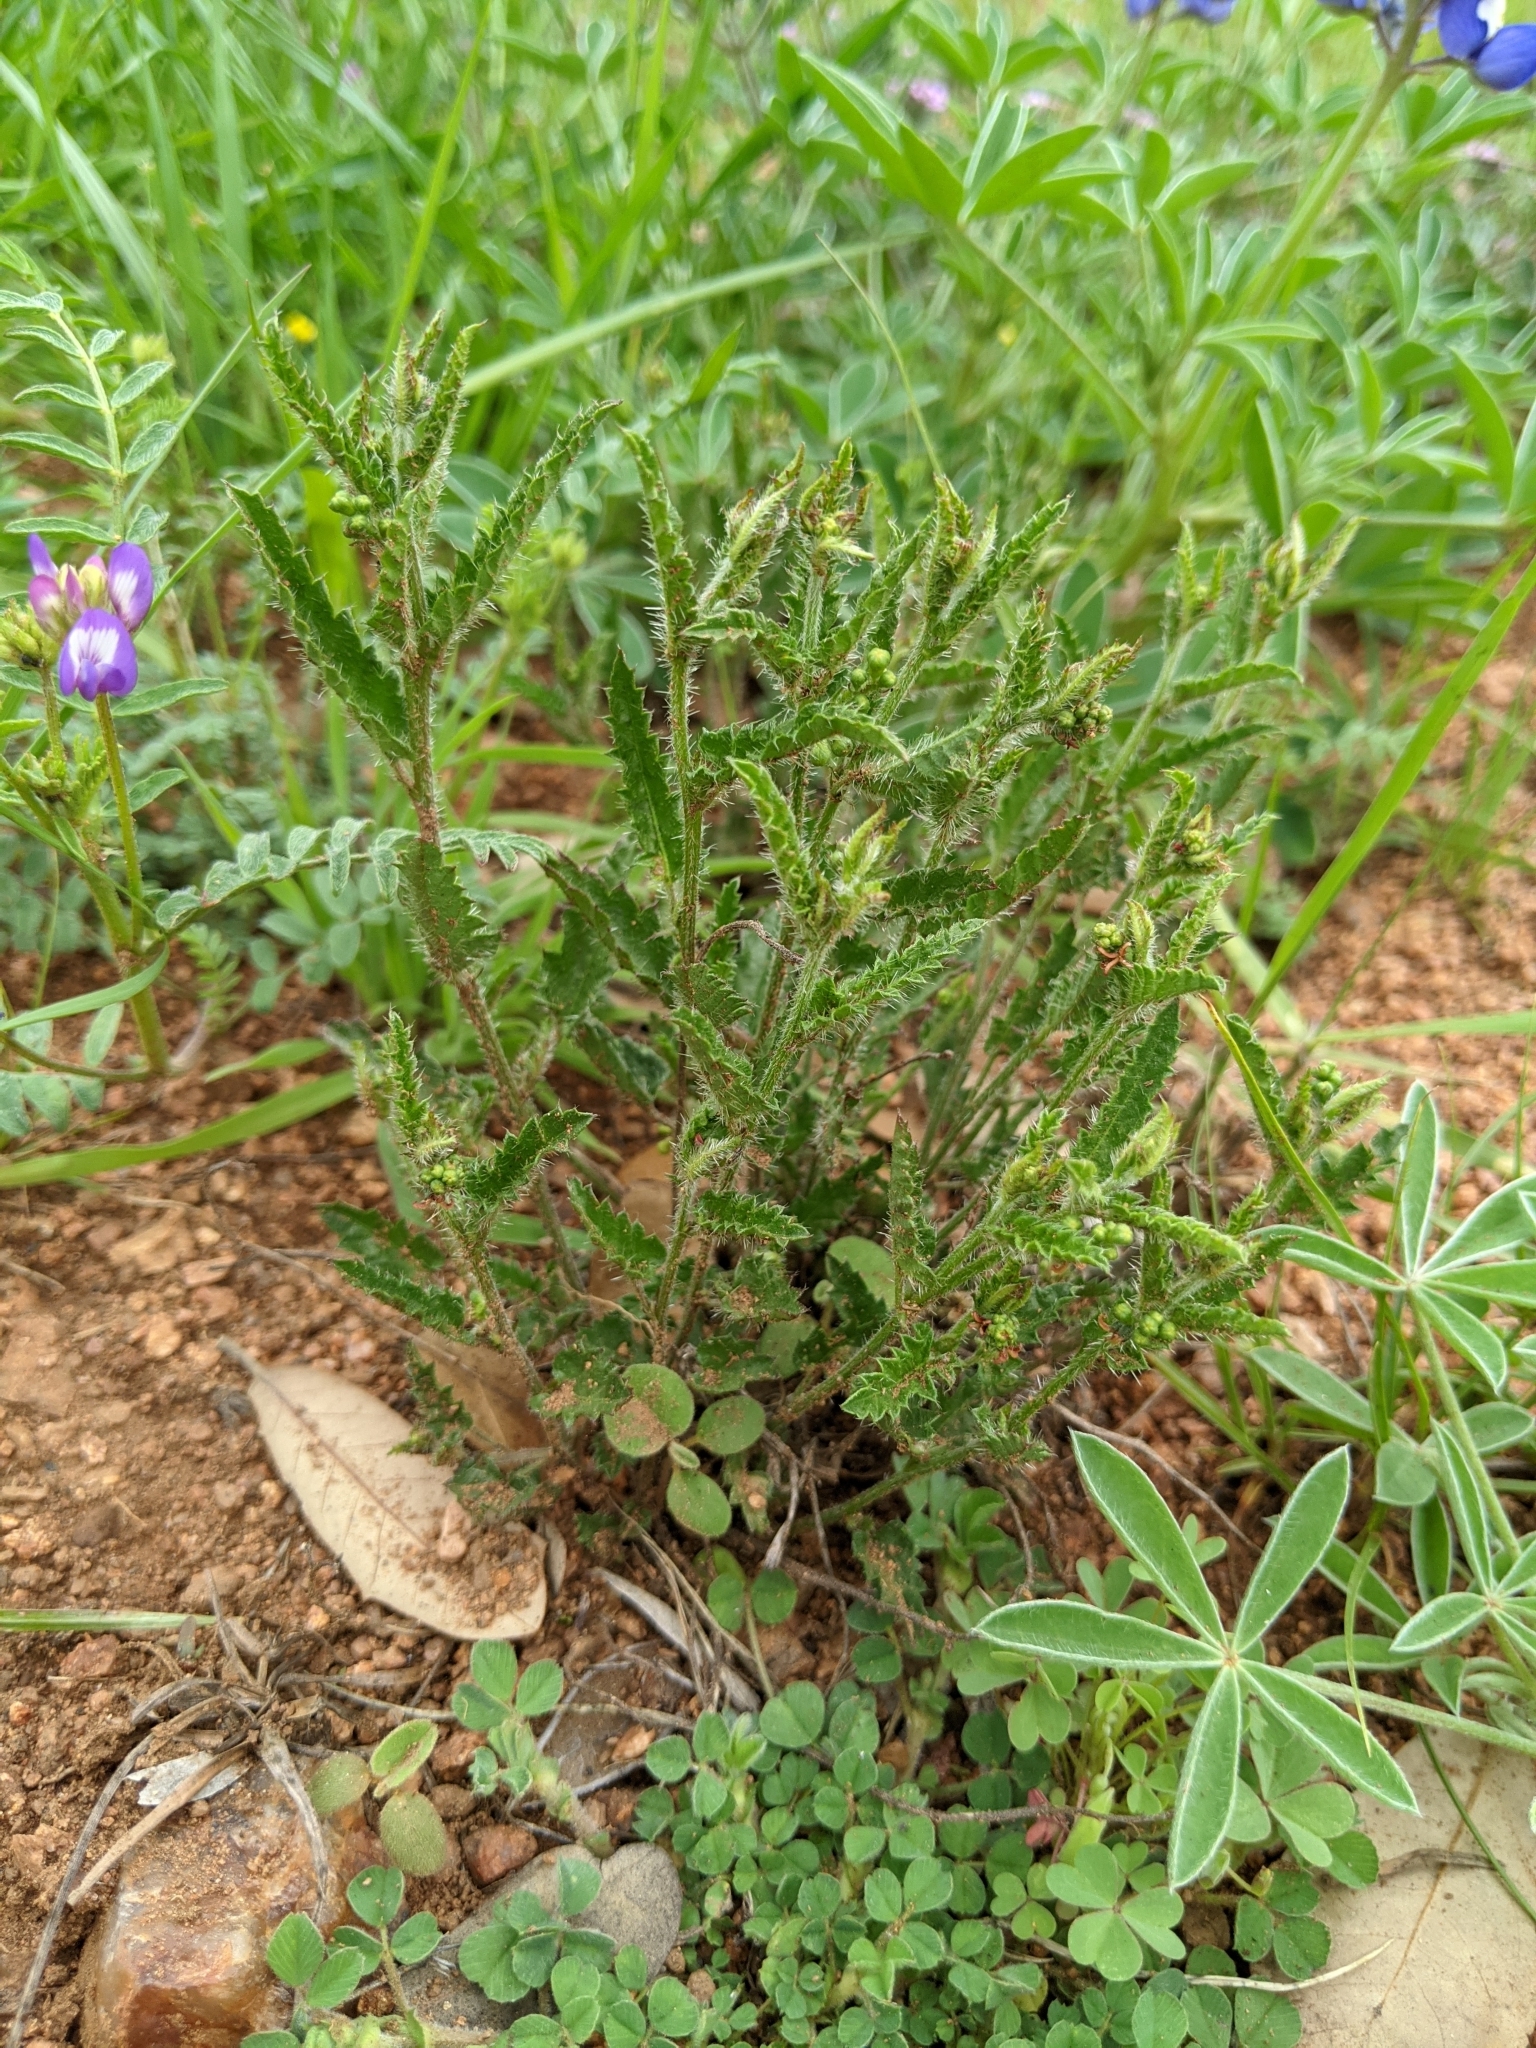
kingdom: Plantae
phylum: Tracheophyta
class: Magnoliopsida
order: Malpighiales
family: Euphorbiaceae
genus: Tragia
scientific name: Tragia ramosa
